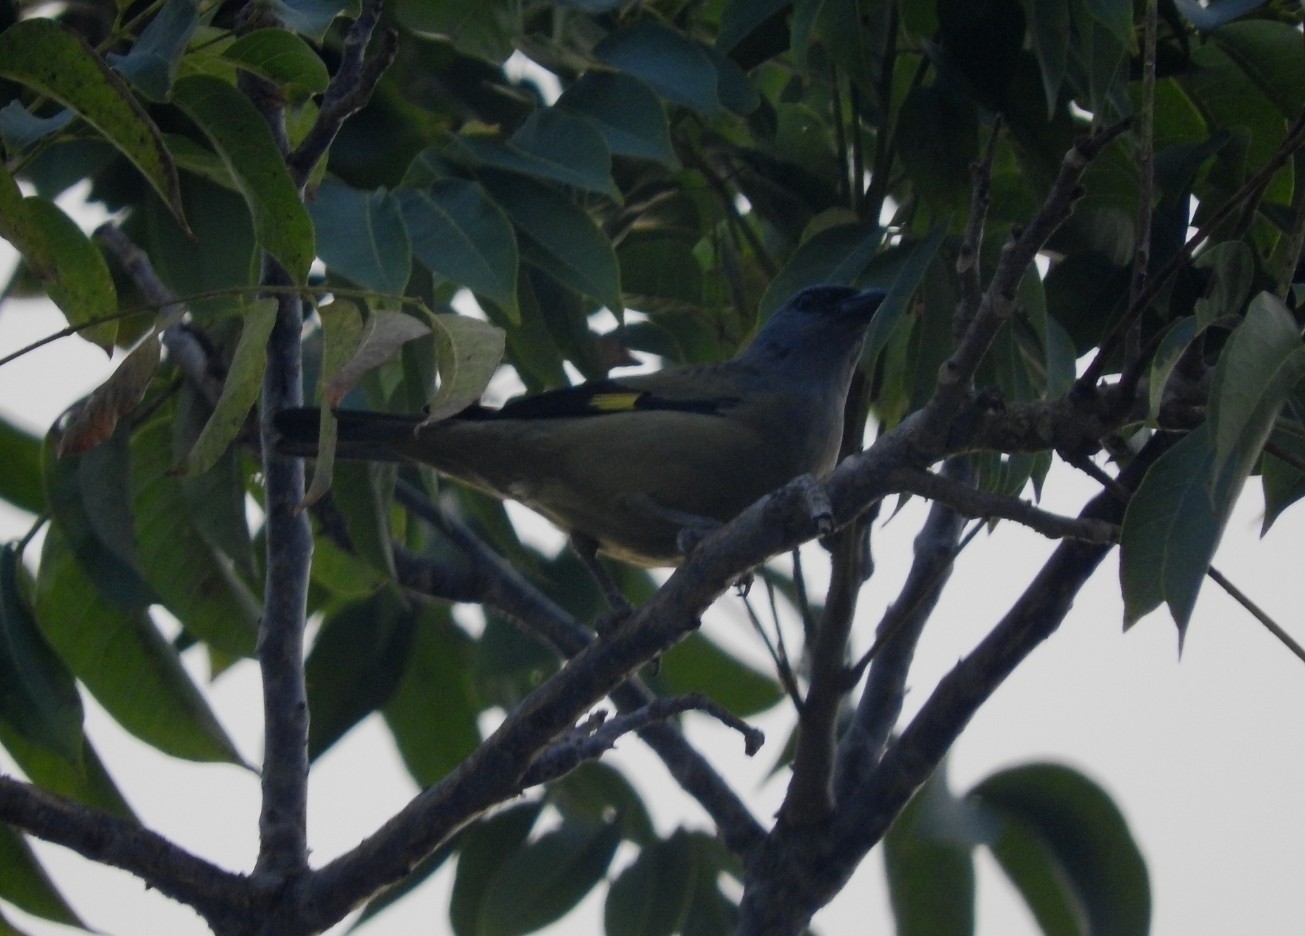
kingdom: Animalia
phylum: Chordata
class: Aves
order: Passeriformes
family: Thraupidae
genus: Thraupis
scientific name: Thraupis abbas
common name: Yellow-winged tanager
